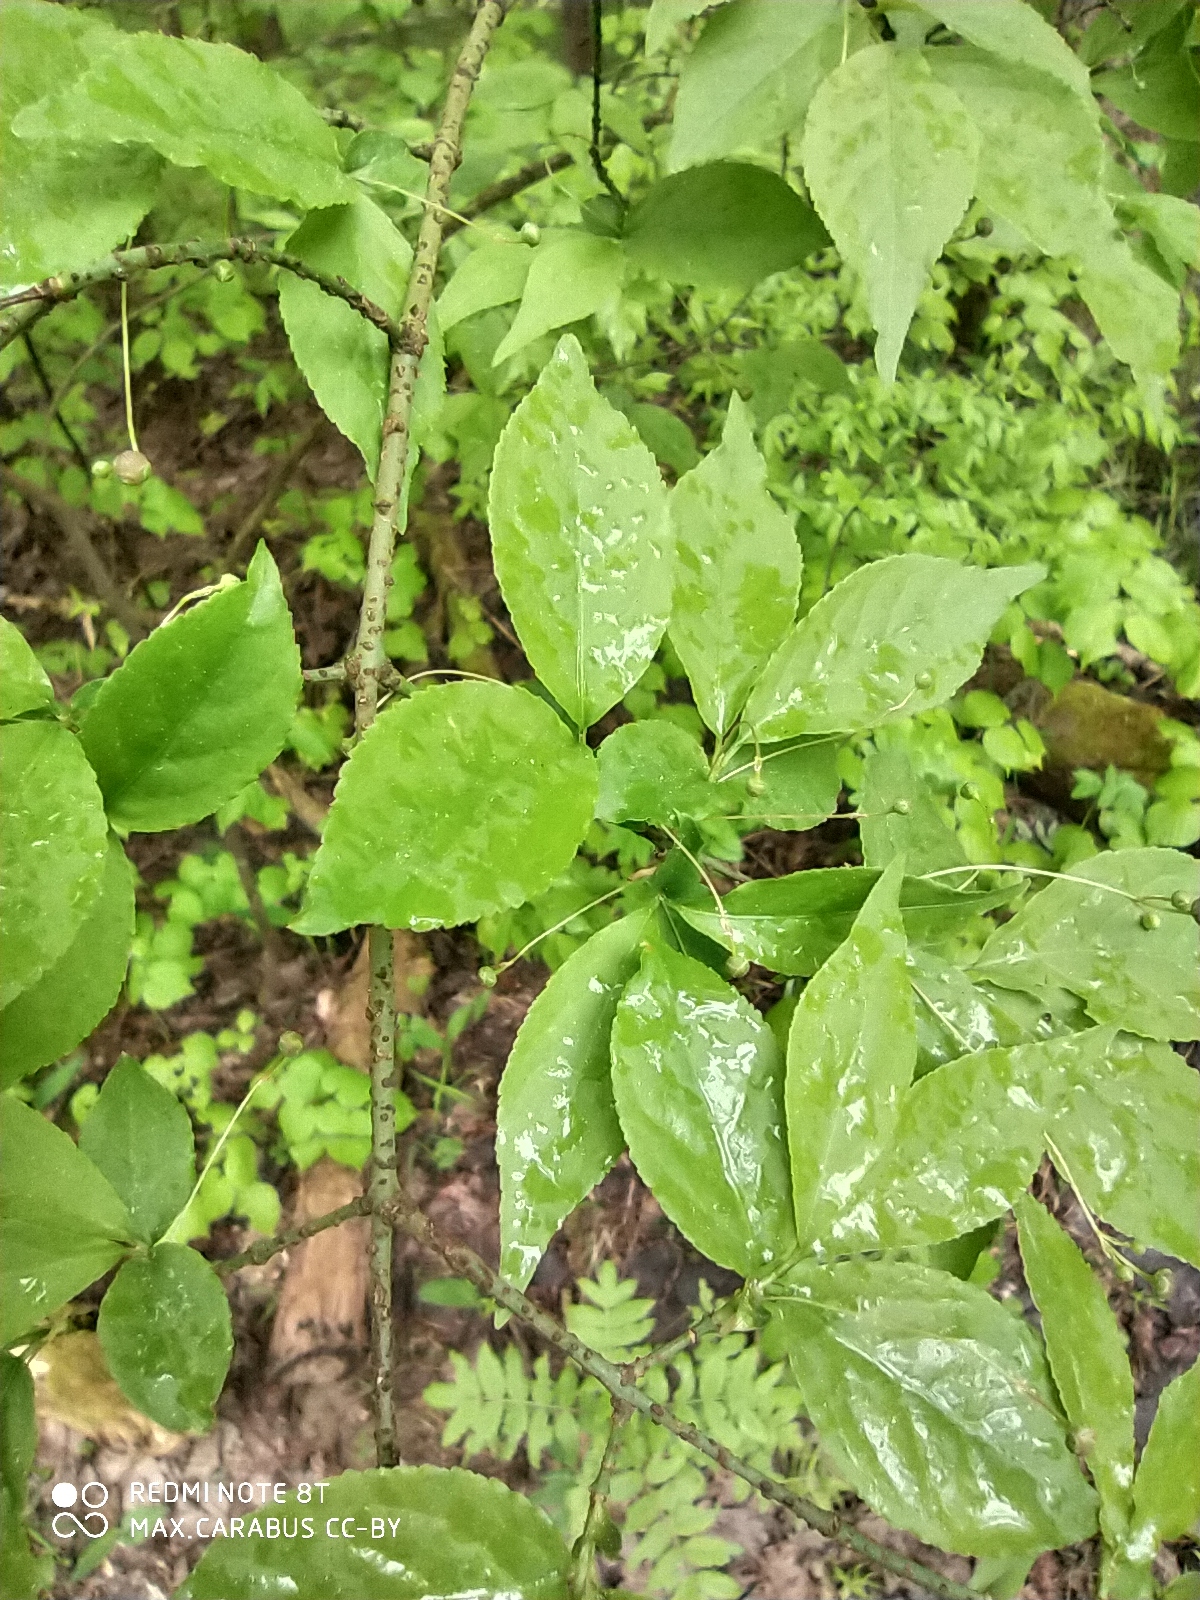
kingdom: Plantae
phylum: Tracheophyta
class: Magnoliopsida
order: Celastrales
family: Celastraceae
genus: Euonymus
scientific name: Euonymus verrucosus
